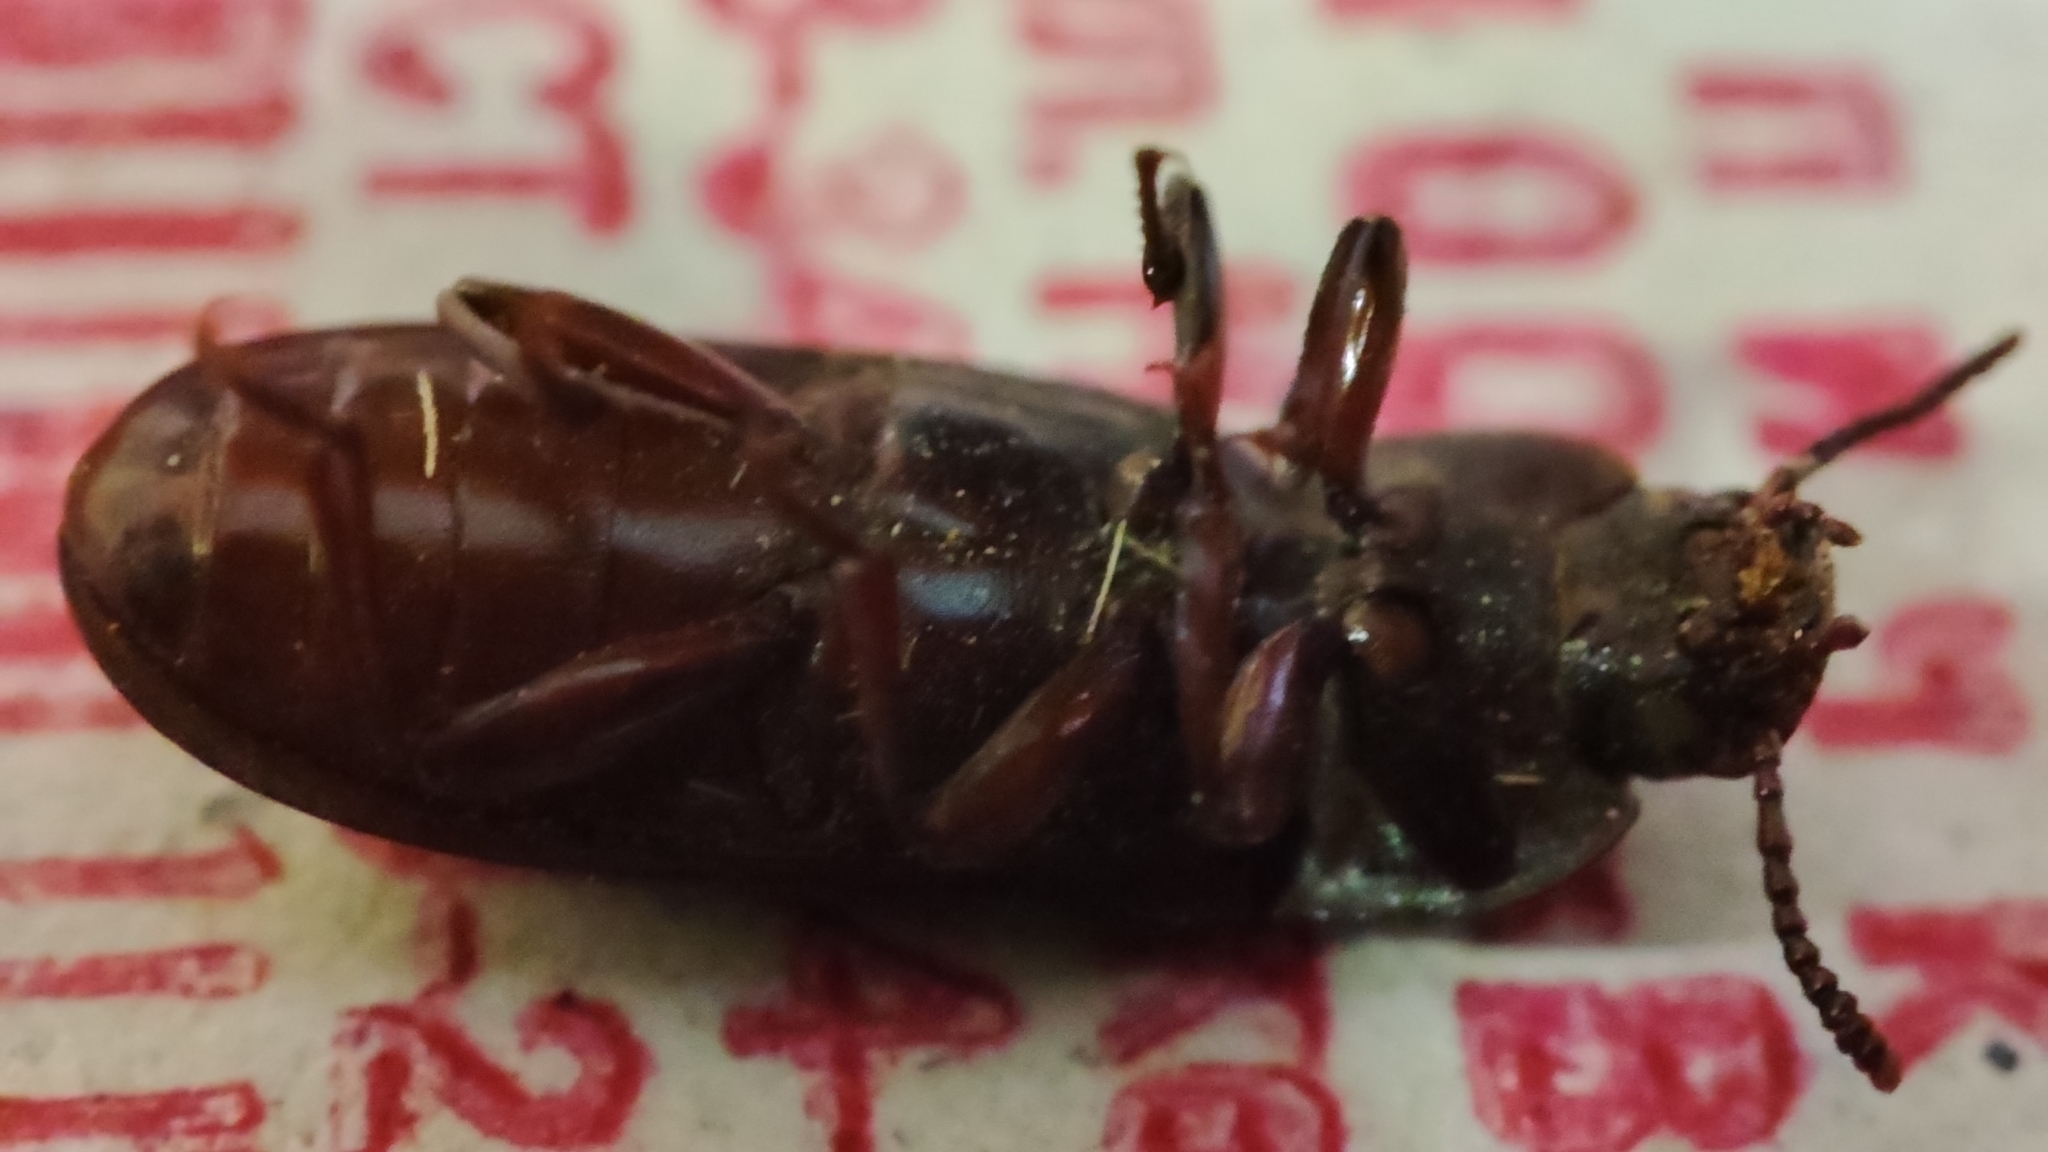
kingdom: Animalia
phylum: Arthropoda
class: Insecta
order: Coleoptera
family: Tenebrionidae
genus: Tenebrio
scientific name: Tenebrio molitor
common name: Hardback beetle
